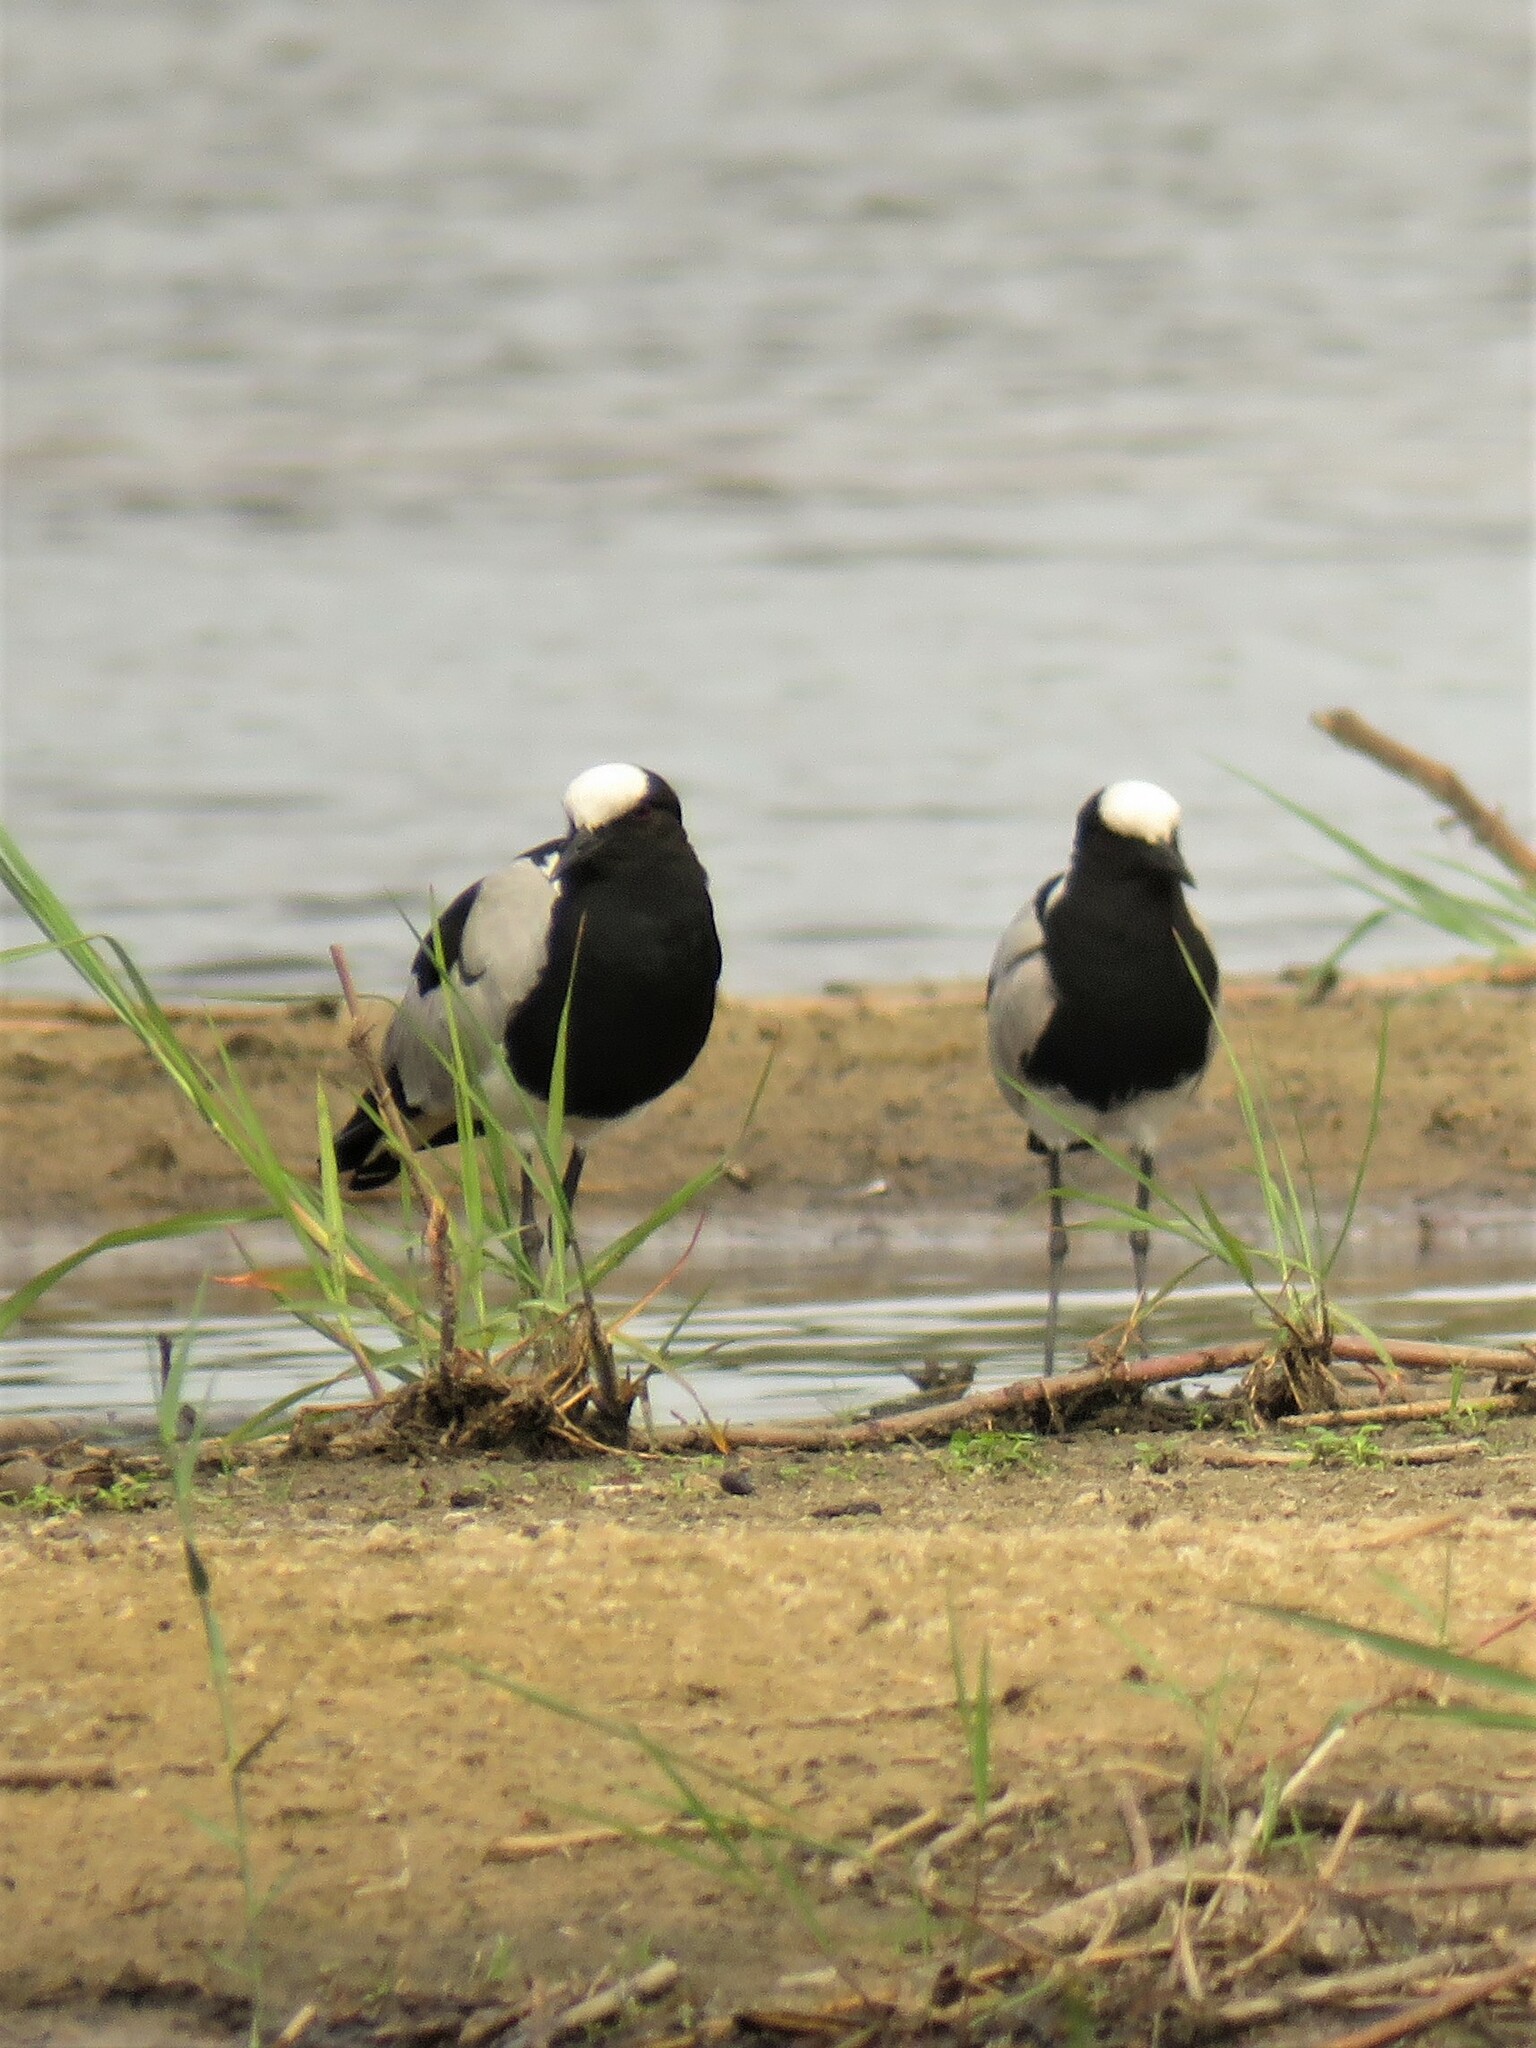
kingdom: Animalia
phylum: Chordata
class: Aves
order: Charadriiformes
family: Charadriidae
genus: Vanellus
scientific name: Vanellus armatus
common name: Blacksmith lapwing
